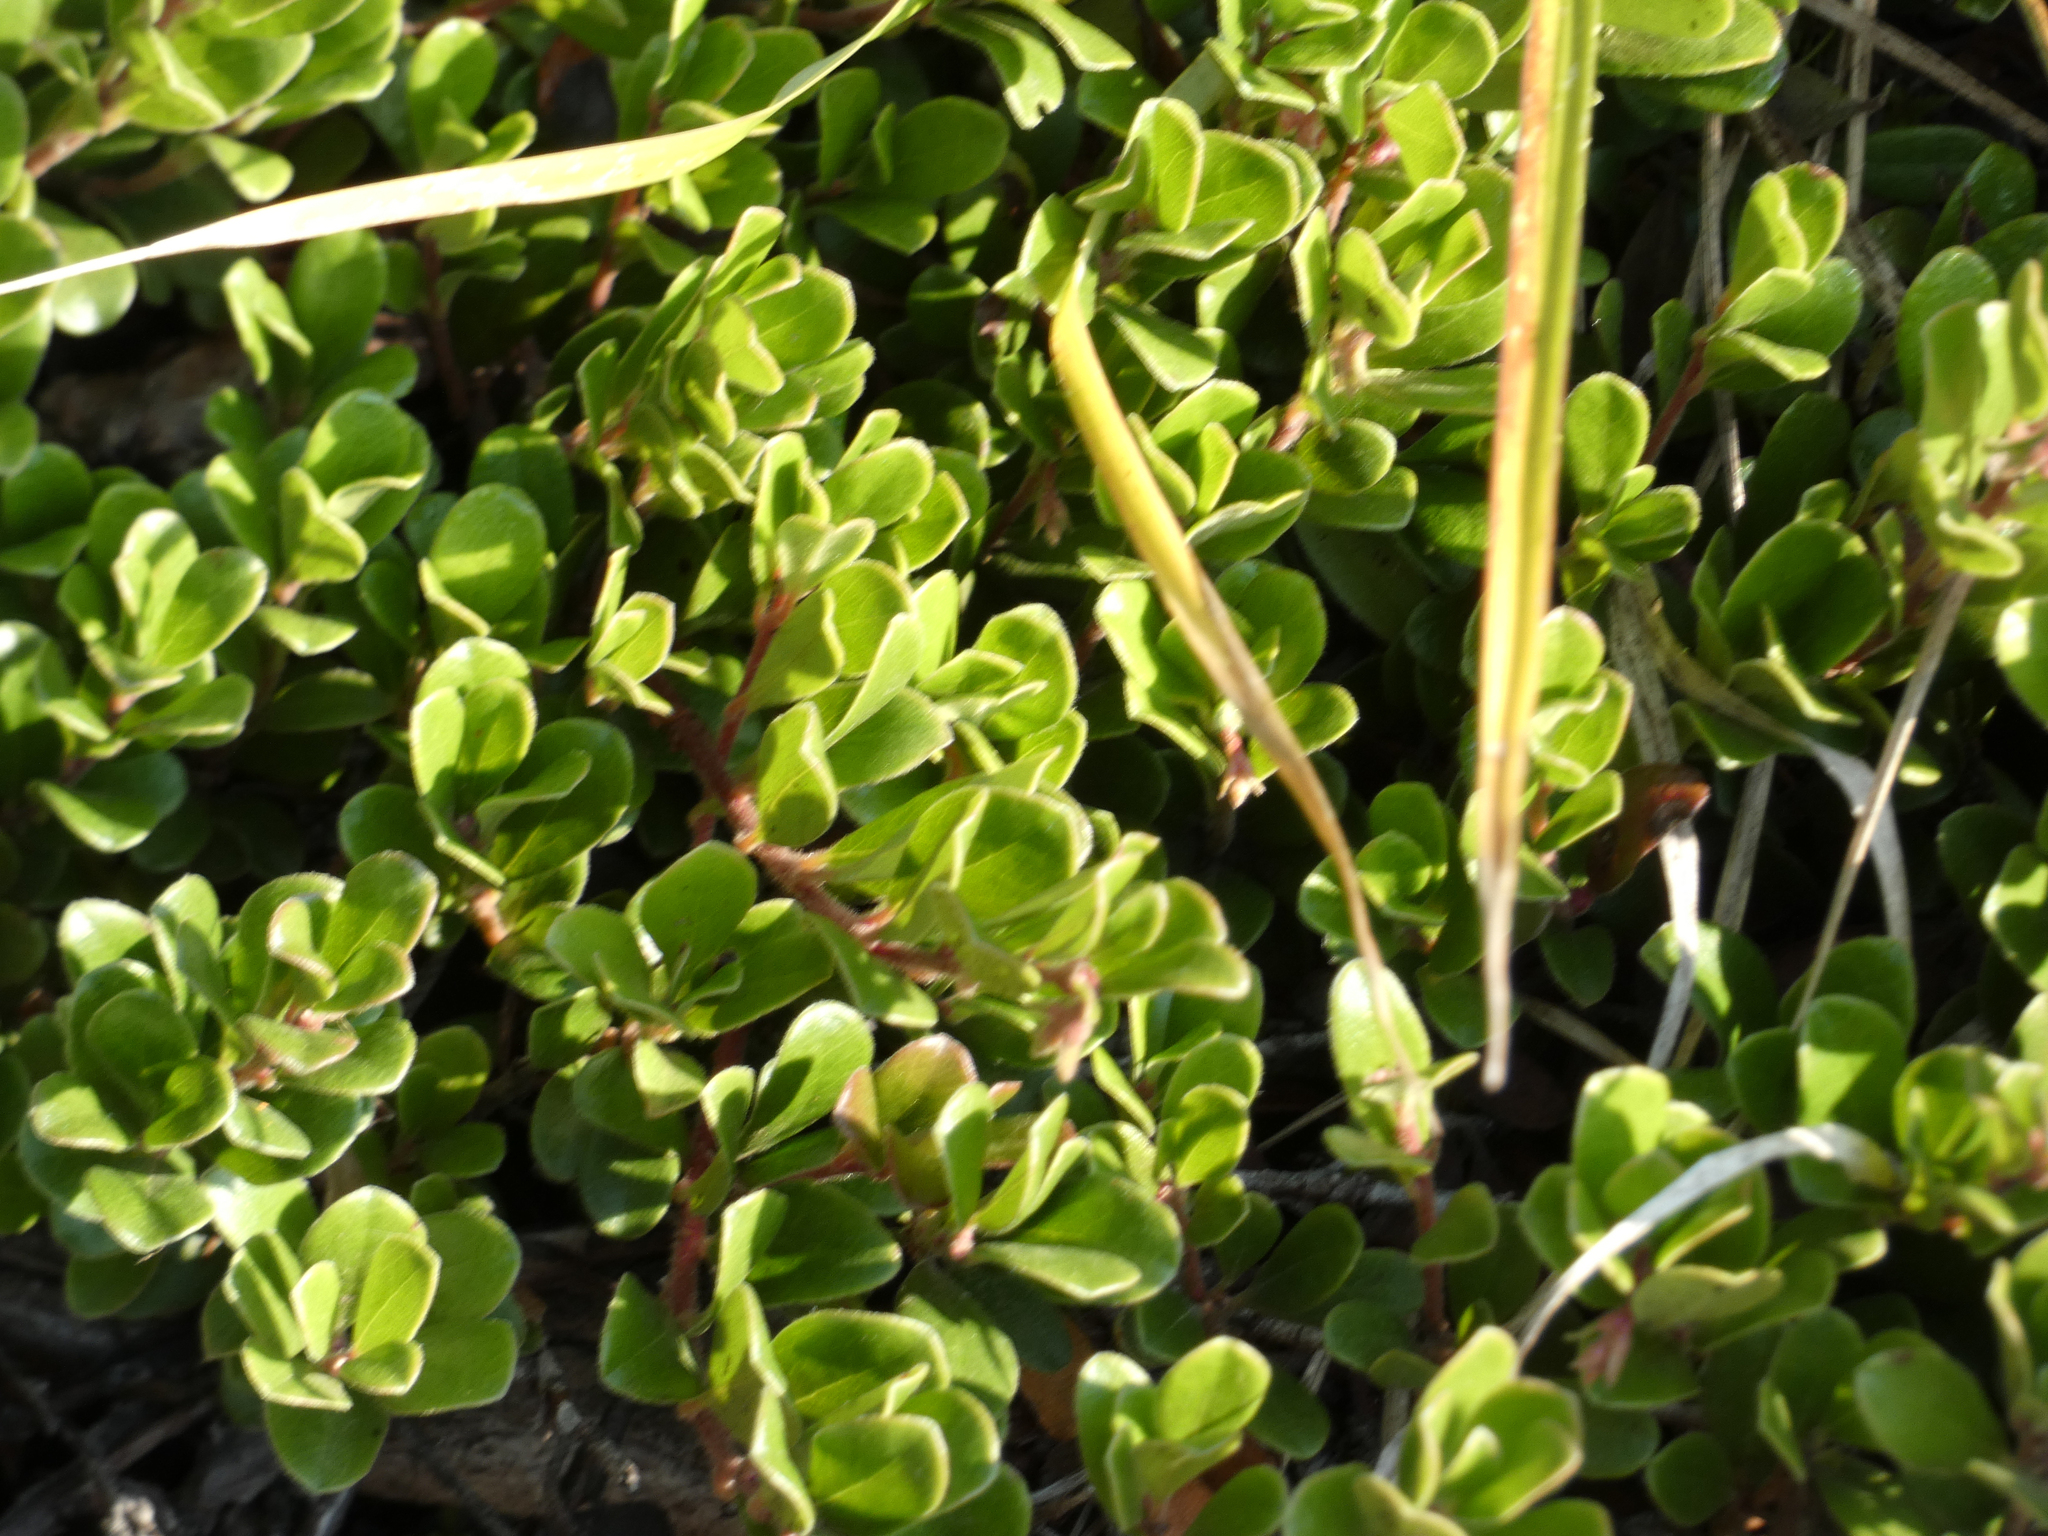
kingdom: Plantae
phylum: Tracheophyta
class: Magnoliopsida
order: Ericales
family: Ericaceae
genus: Arctostaphylos
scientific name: Arctostaphylos uva-ursi
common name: Bearberry
